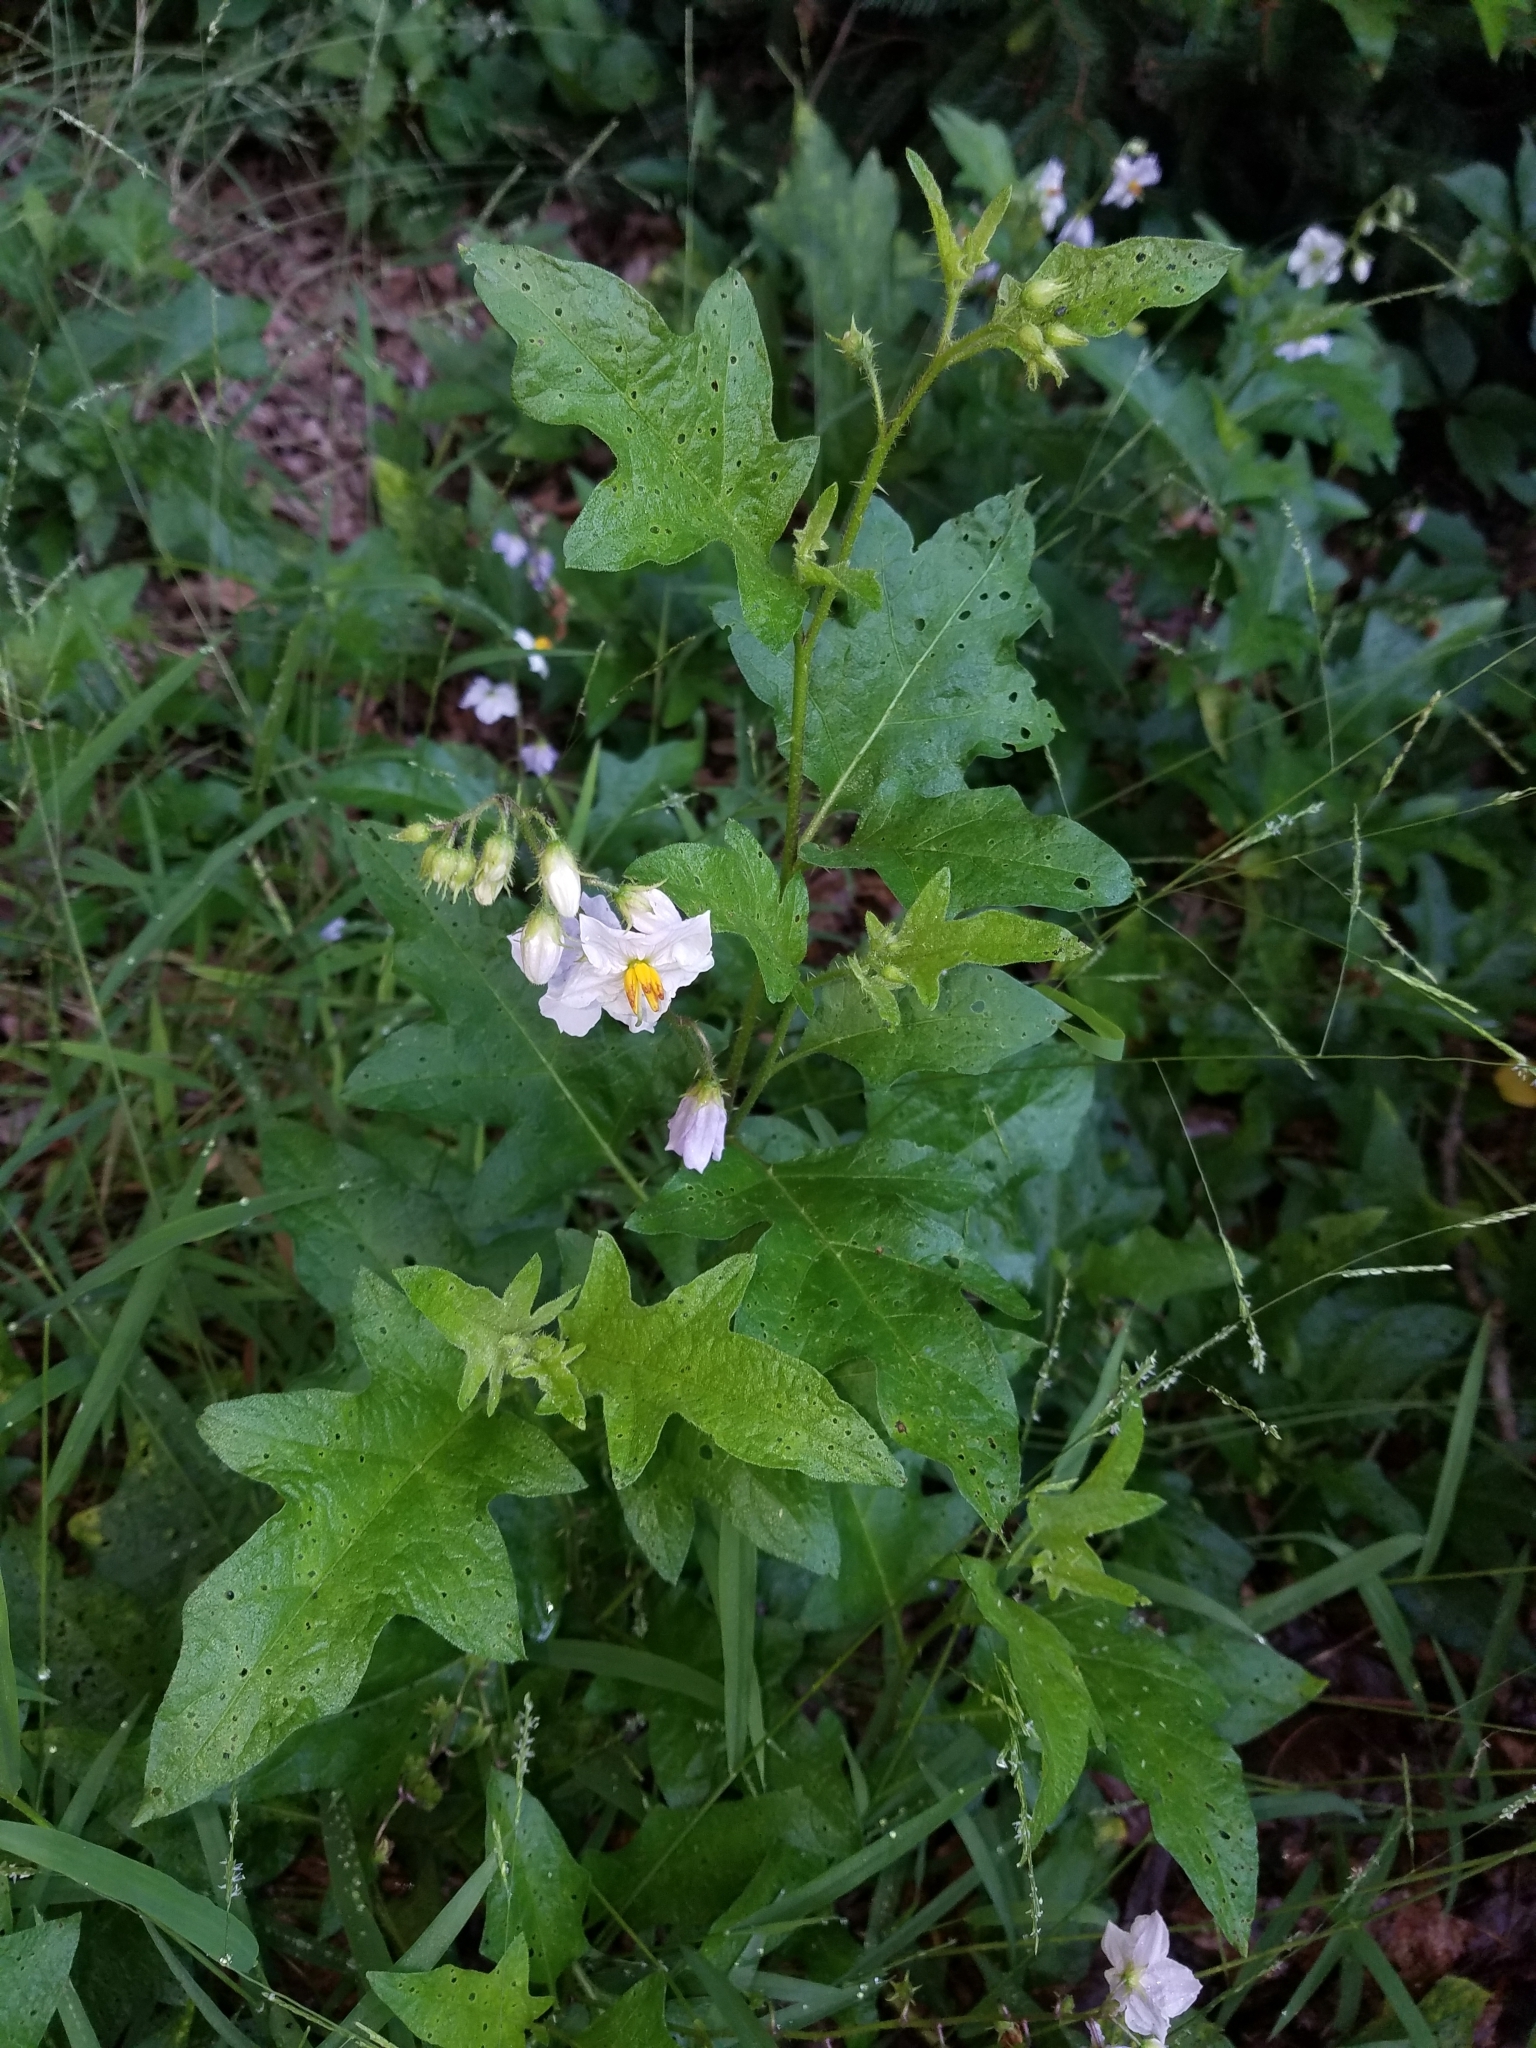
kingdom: Plantae
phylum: Tracheophyta
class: Magnoliopsida
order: Solanales
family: Solanaceae
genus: Solanum
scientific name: Solanum carolinense
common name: Horse-nettle
